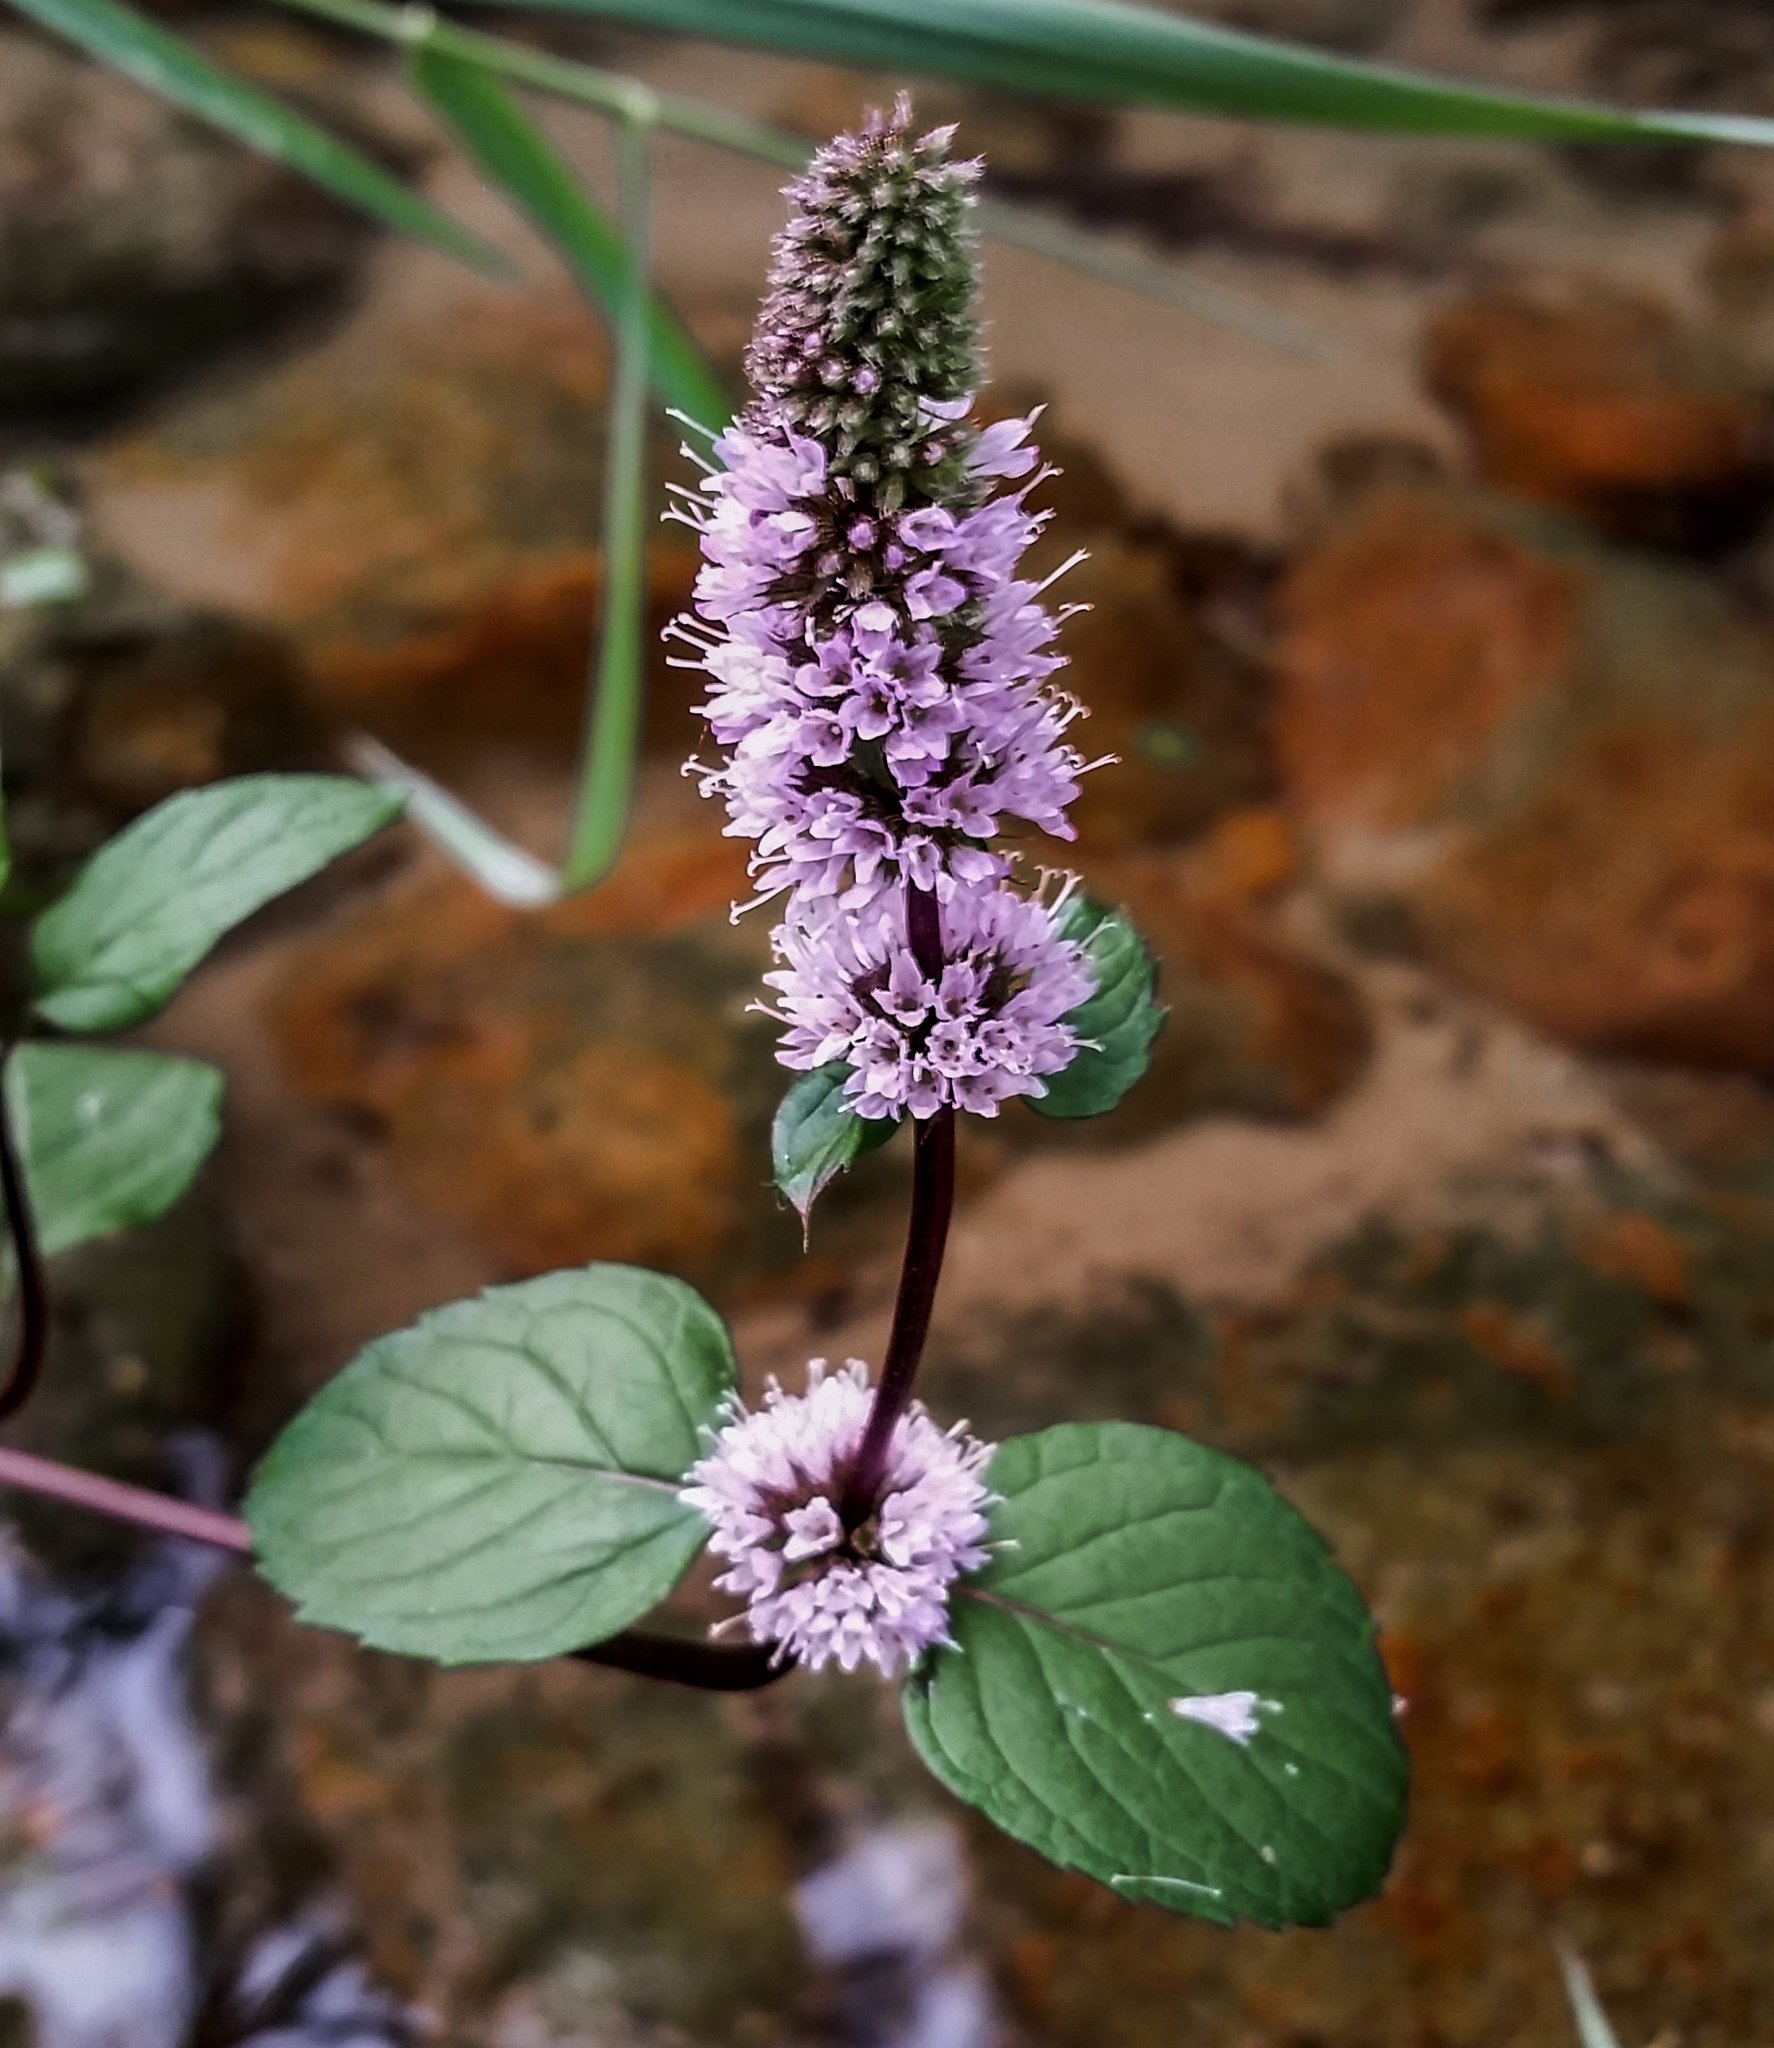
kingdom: Plantae
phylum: Tracheophyta
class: Magnoliopsida
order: Lamiales
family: Lamiaceae
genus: Mentha
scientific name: Mentha piperita
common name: Peppermint
